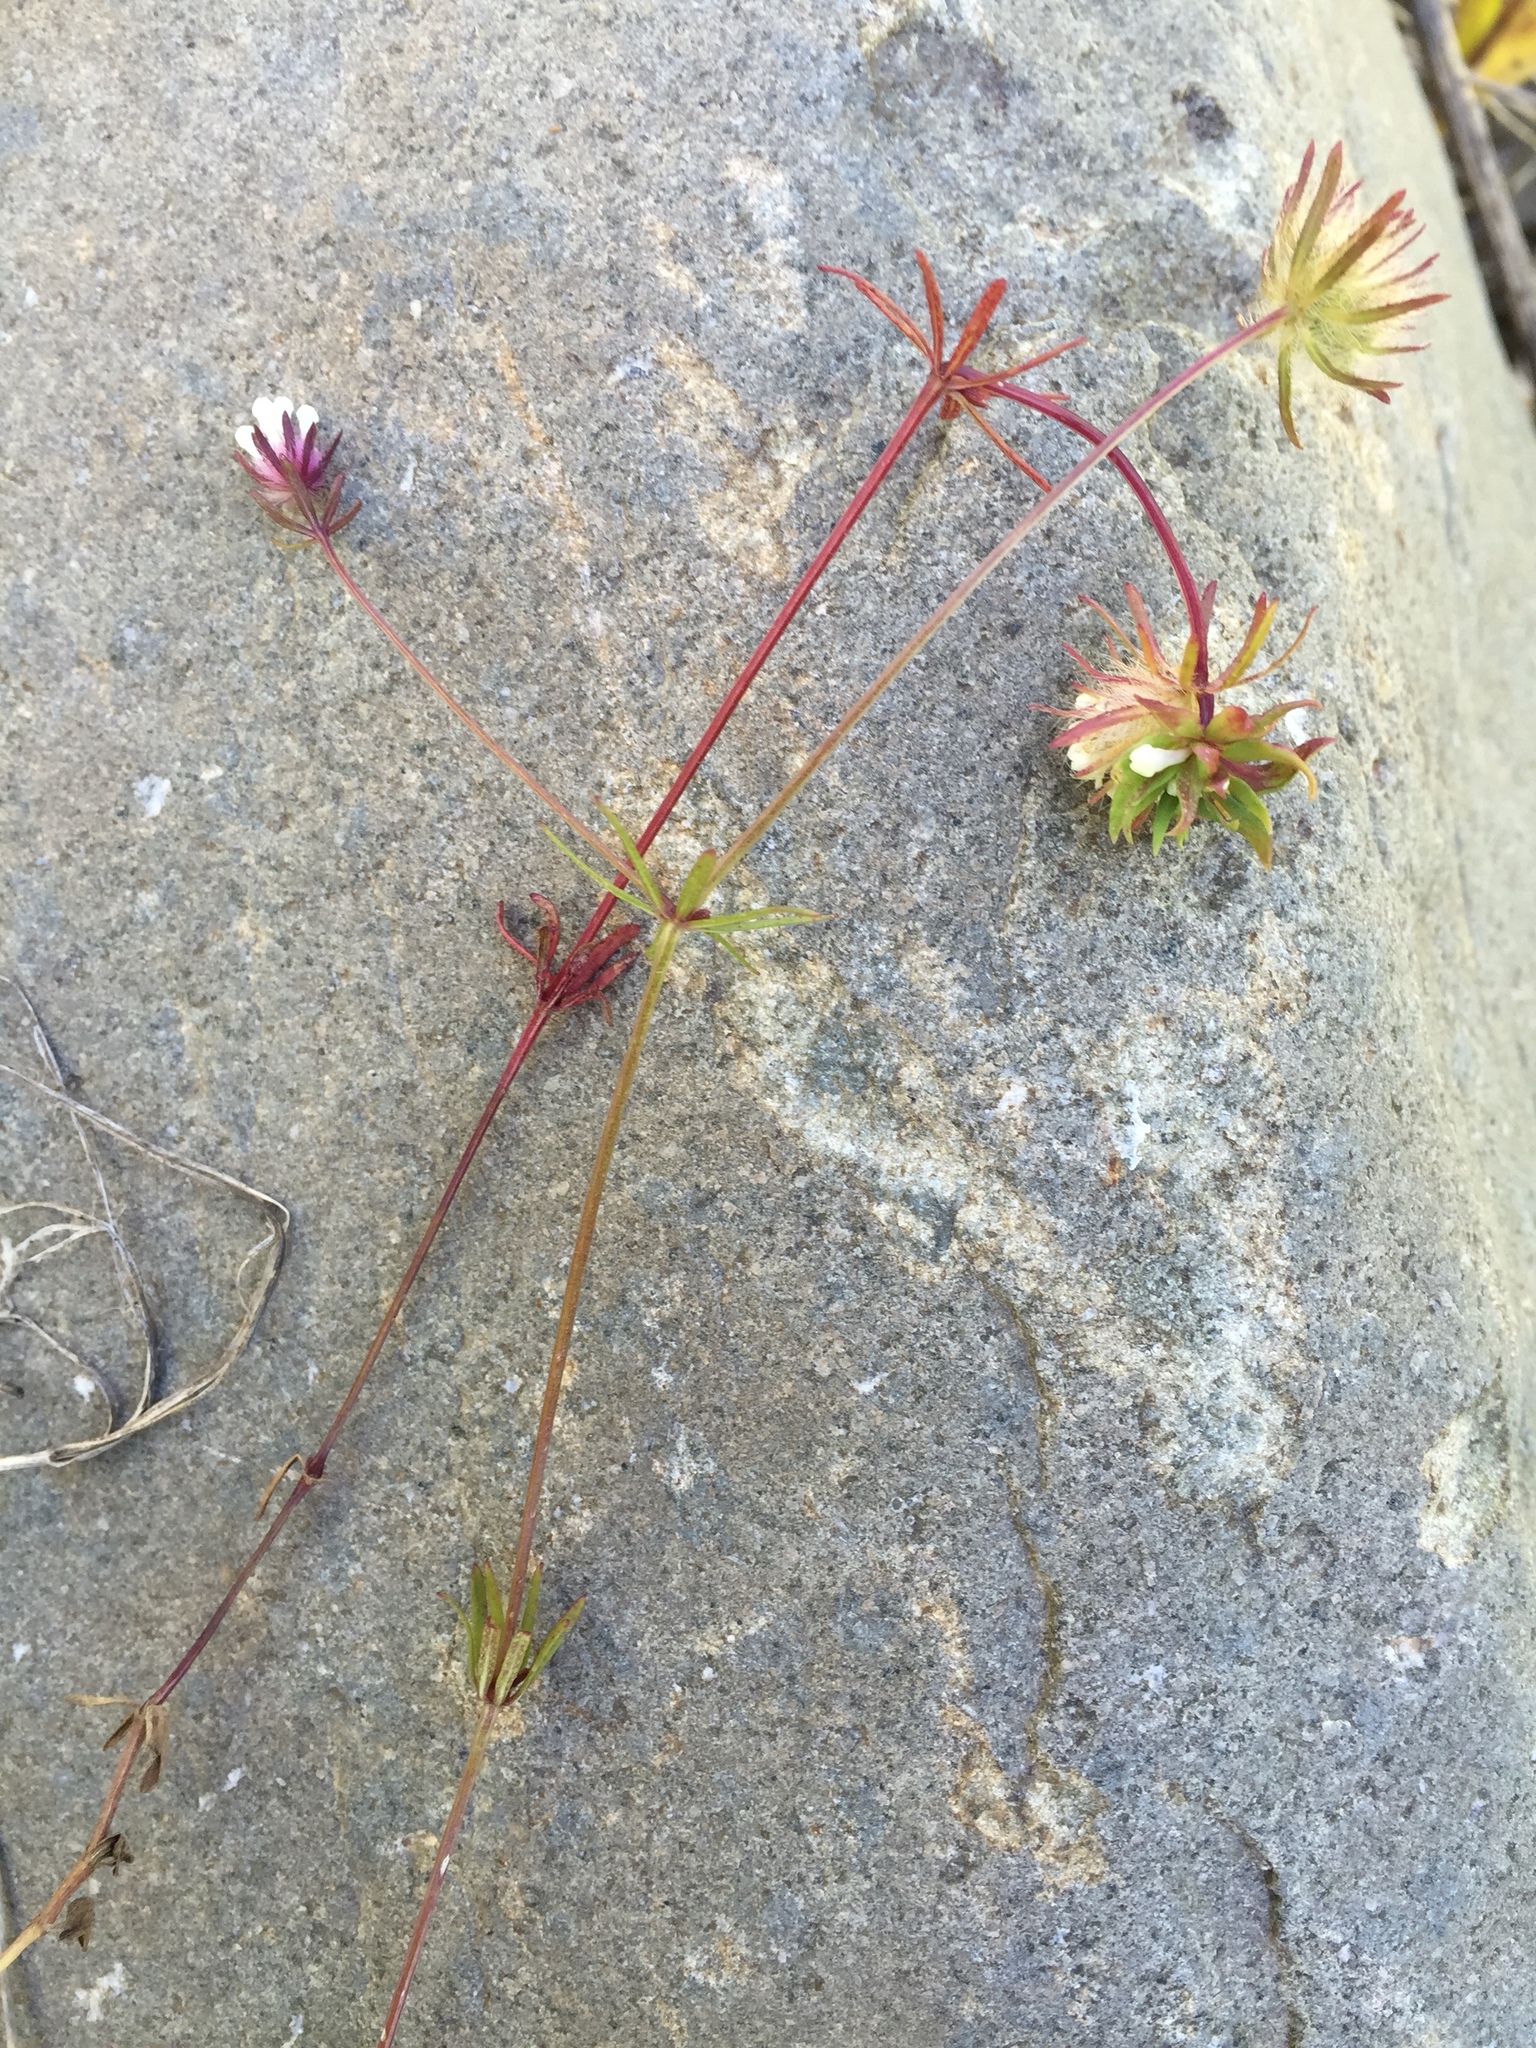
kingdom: Plantae
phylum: Tracheophyta
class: Magnoliopsida
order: Gentianales
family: Rubiaceae
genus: Asperula
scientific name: Asperula orientalis
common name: Oriental asperula
